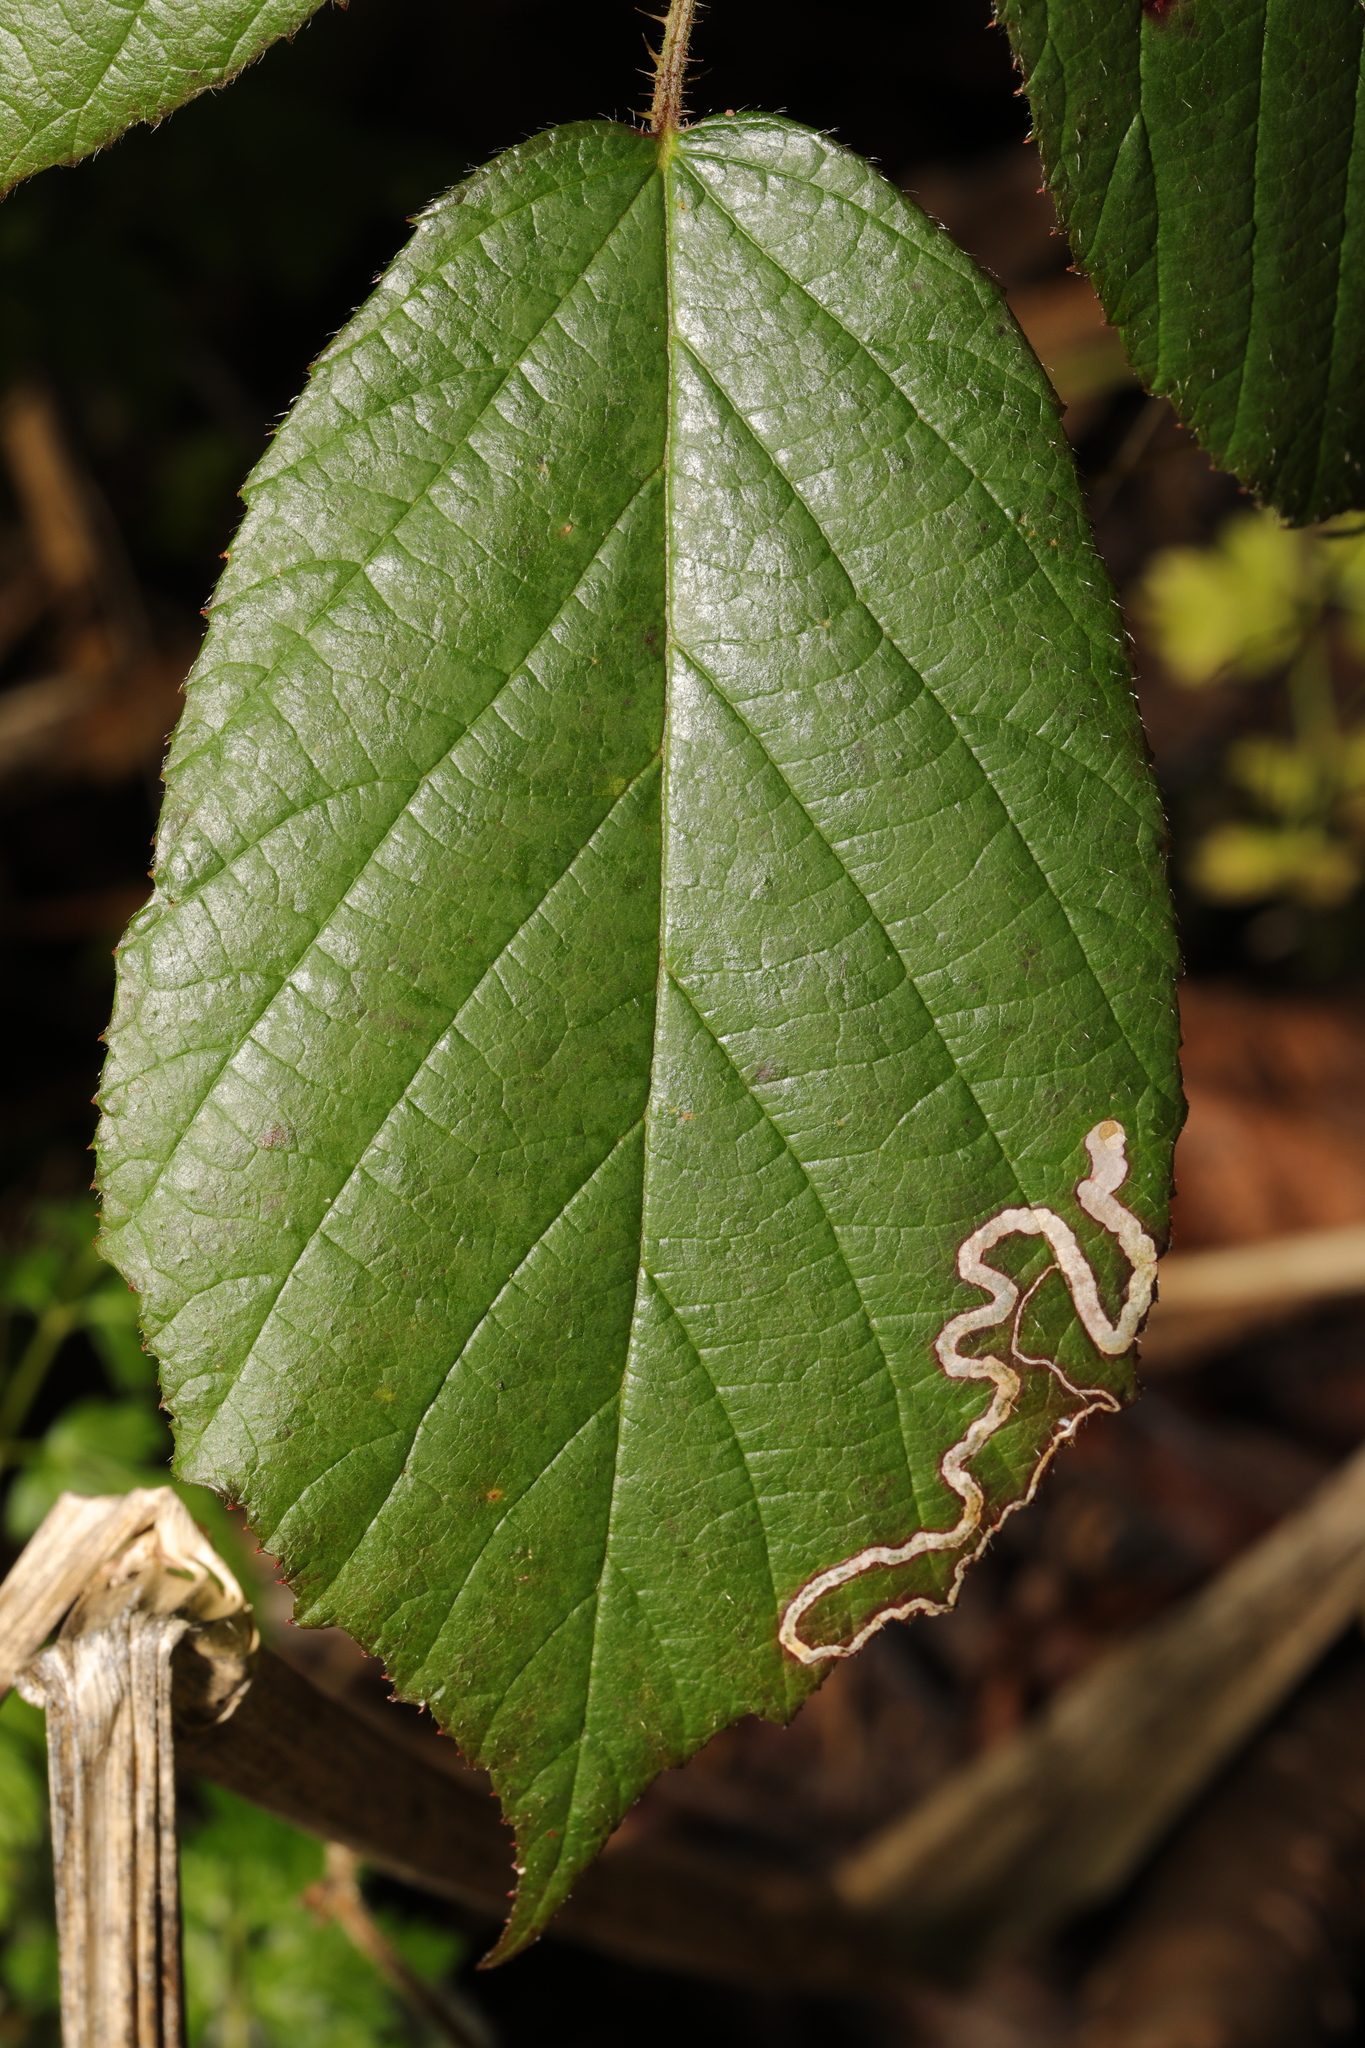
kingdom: Animalia
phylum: Arthropoda
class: Insecta
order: Lepidoptera
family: Nepticulidae
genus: Stigmella
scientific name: Stigmella aurella
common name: Golden pigmy
